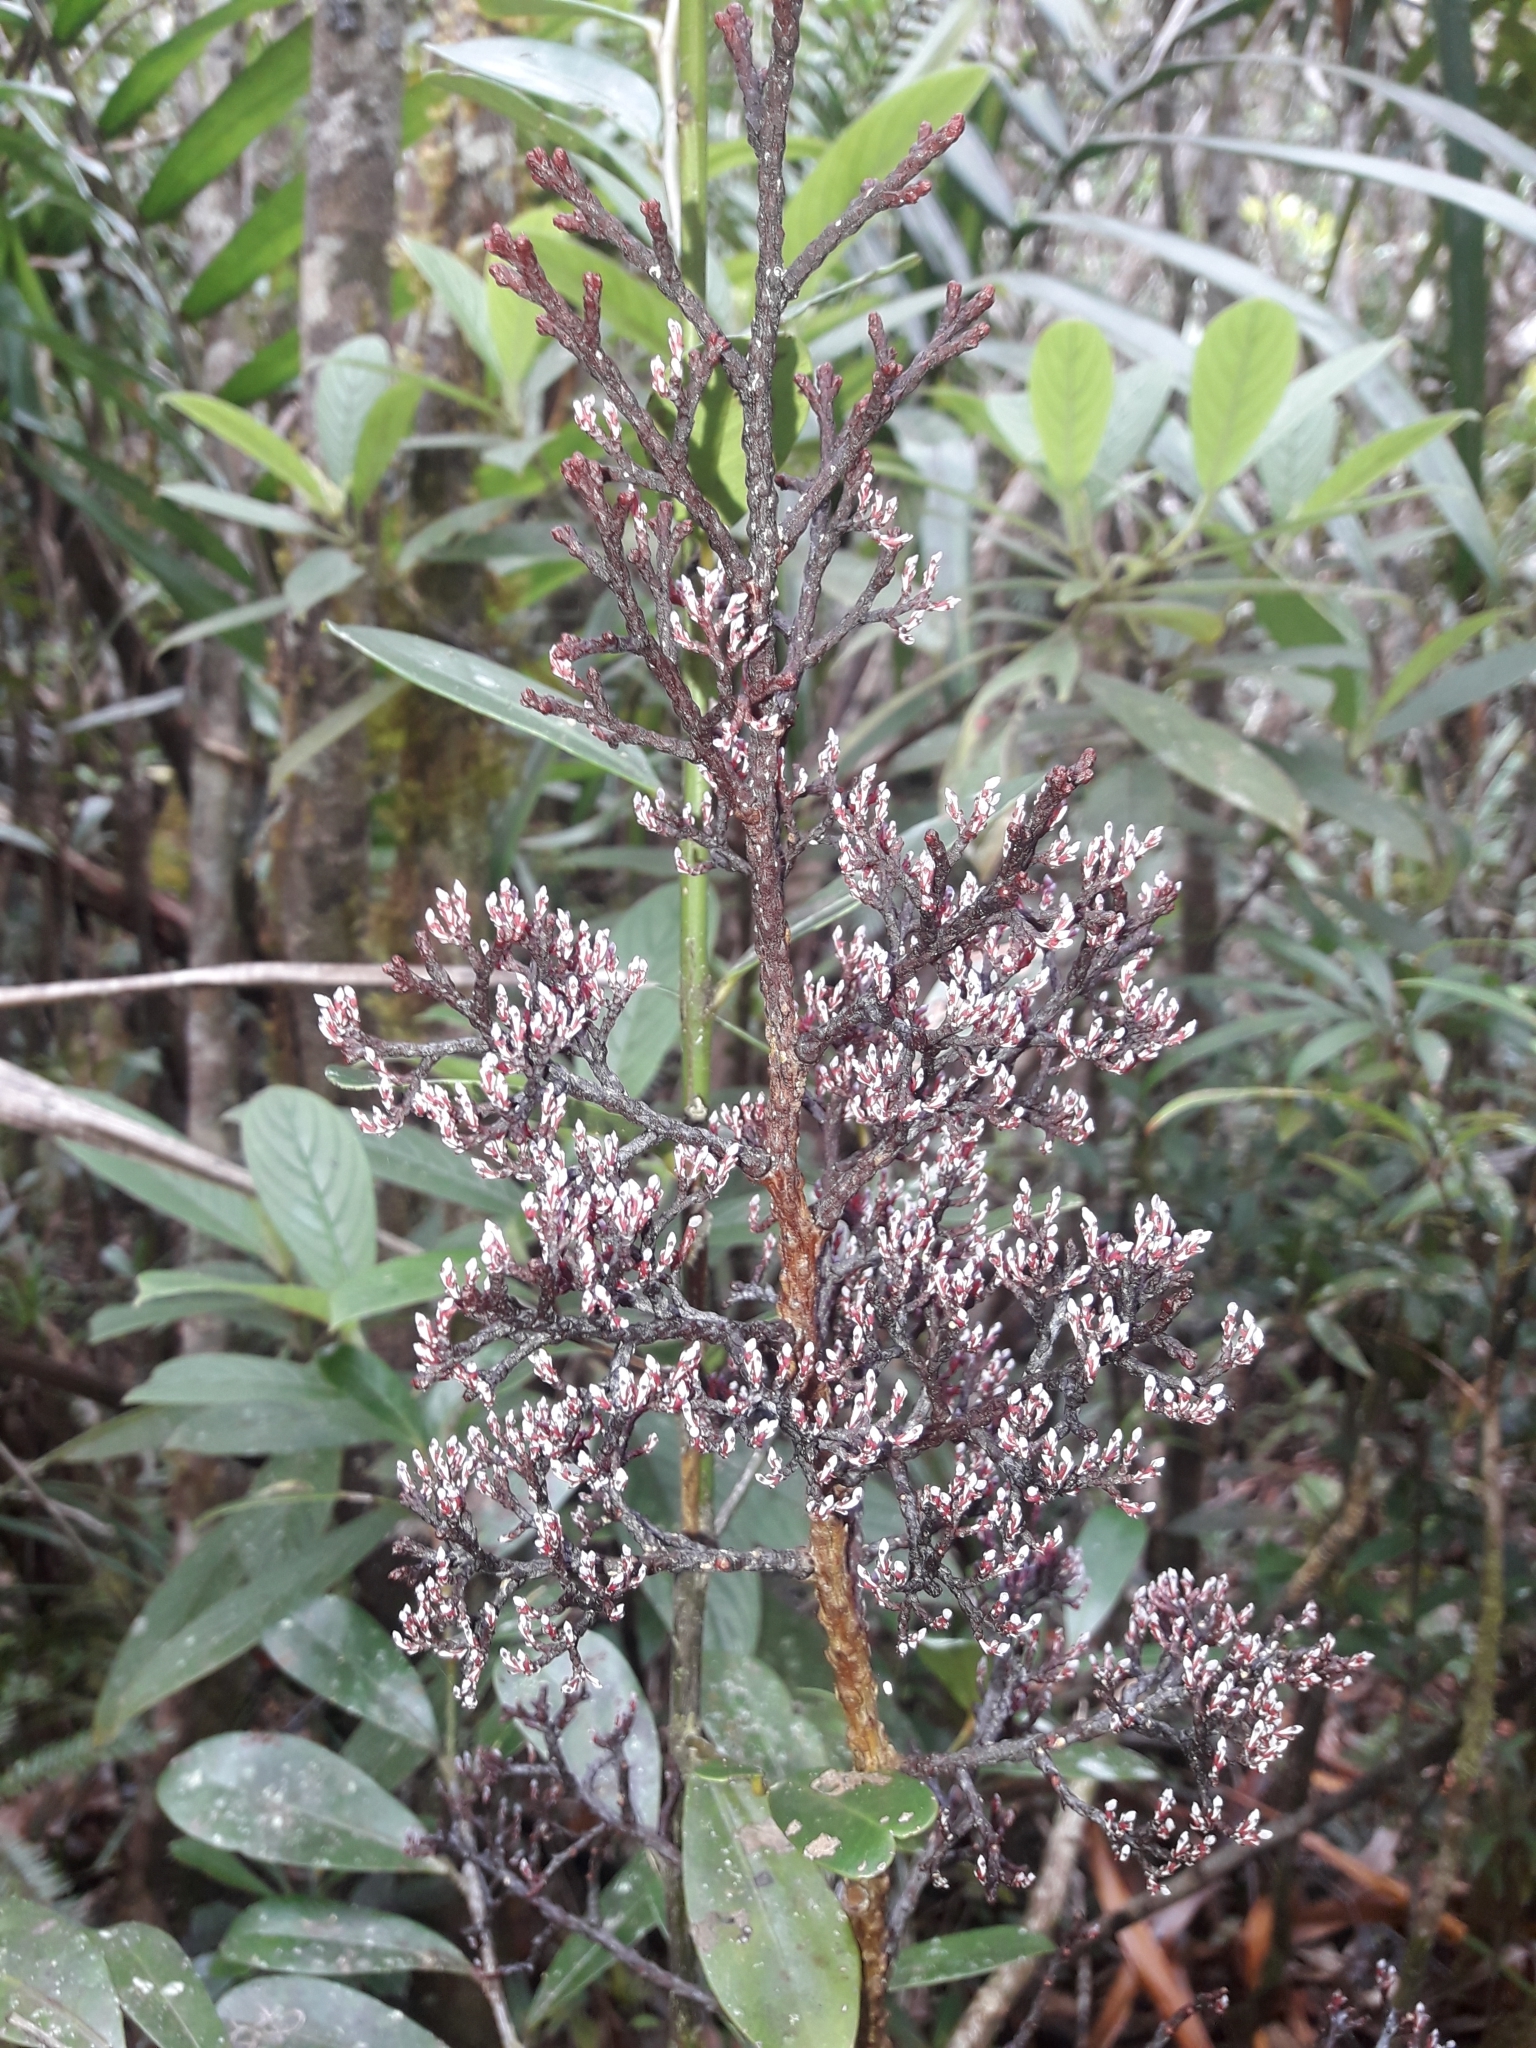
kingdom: Plantae
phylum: Tracheophyta
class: Pinopsida
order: Pinales
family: Podocarpaceae
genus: Parasitaxus
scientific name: Parasitaxus usta
